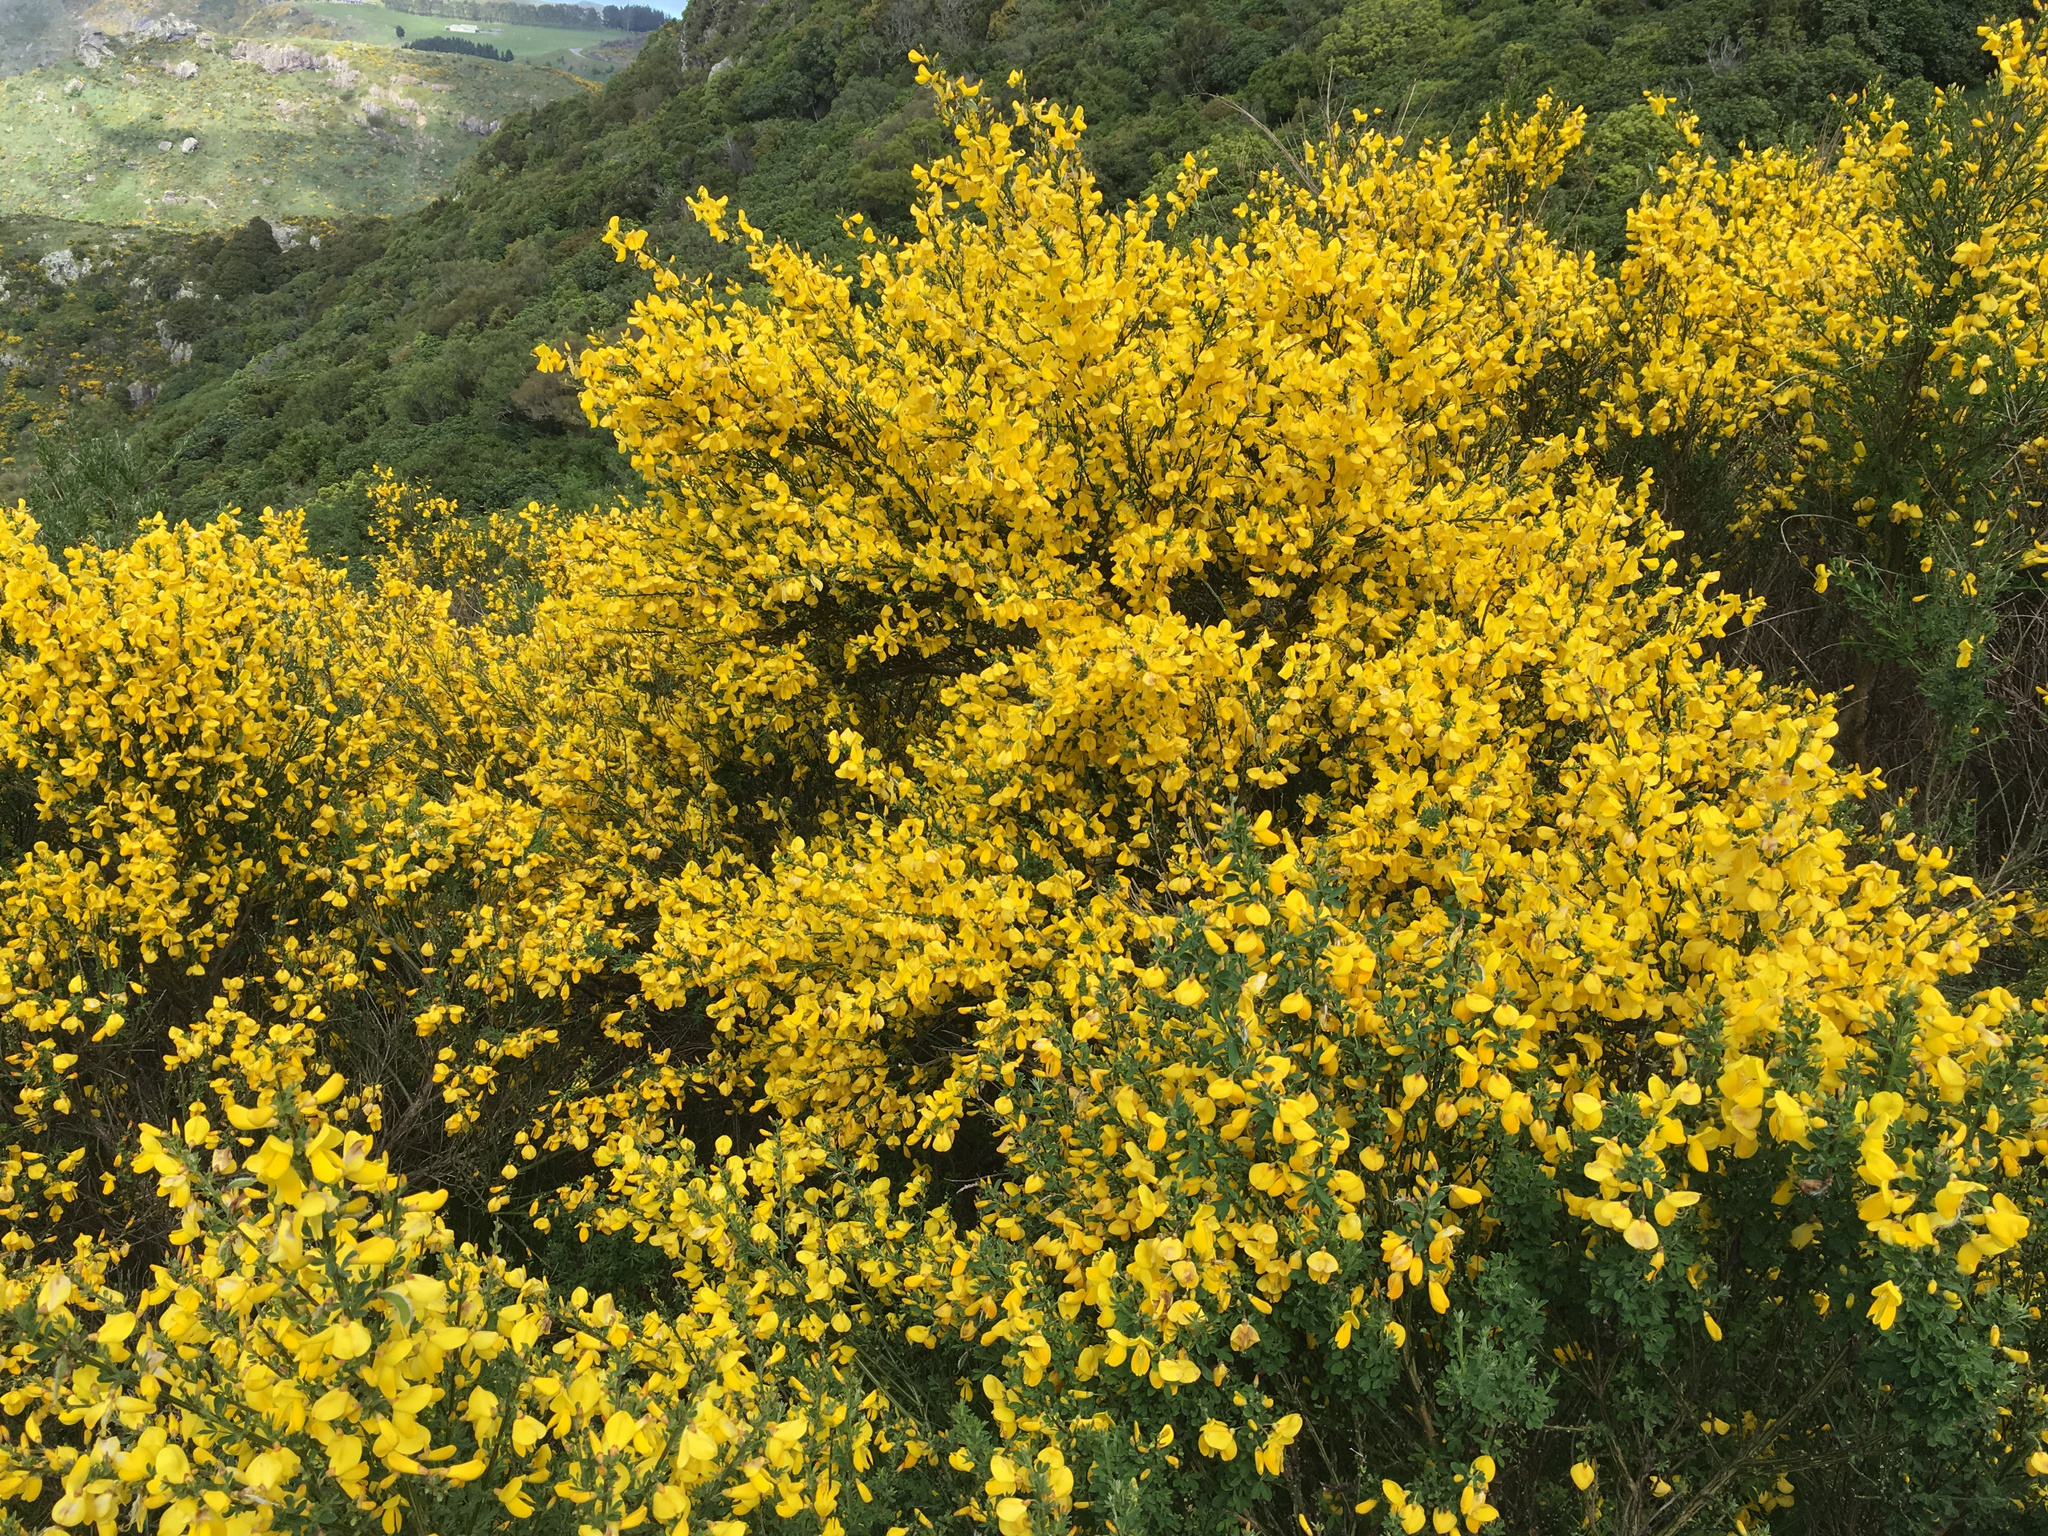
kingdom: Plantae
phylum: Tracheophyta
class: Magnoliopsida
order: Fabales
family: Fabaceae
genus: Cytisus
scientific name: Cytisus scoparius
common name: Scotch broom
